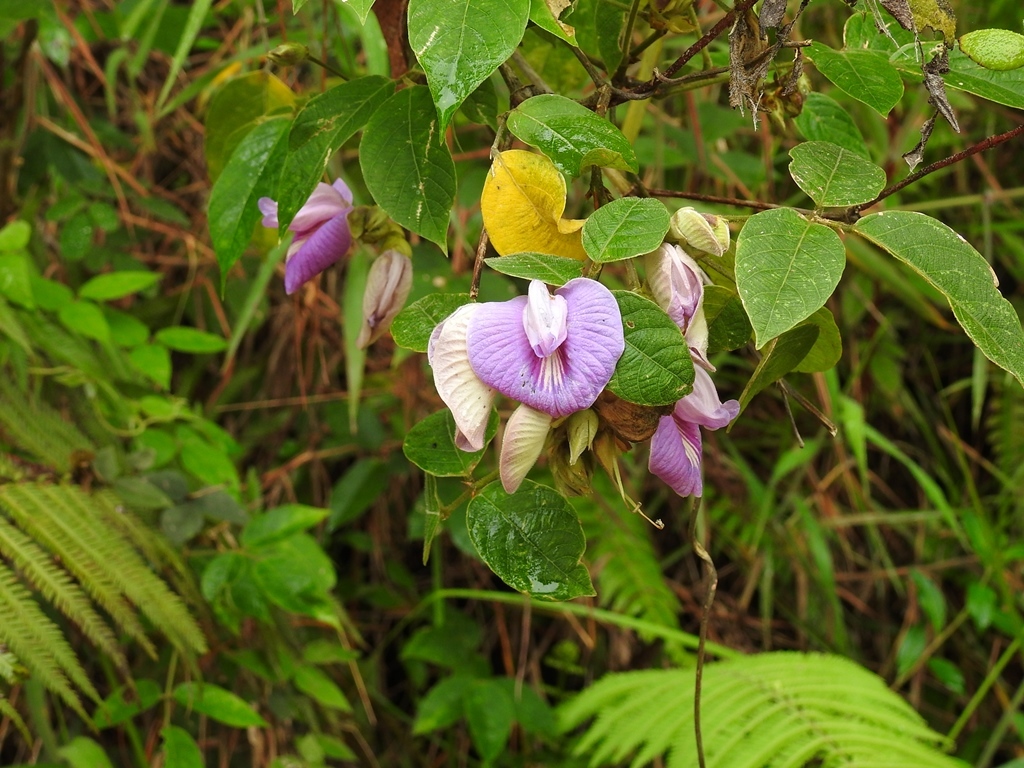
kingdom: Plantae
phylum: Tracheophyta
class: Magnoliopsida
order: Fabales
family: Fabaceae
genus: Centrosema
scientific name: Centrosema virginianum
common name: Butterfly-pea
